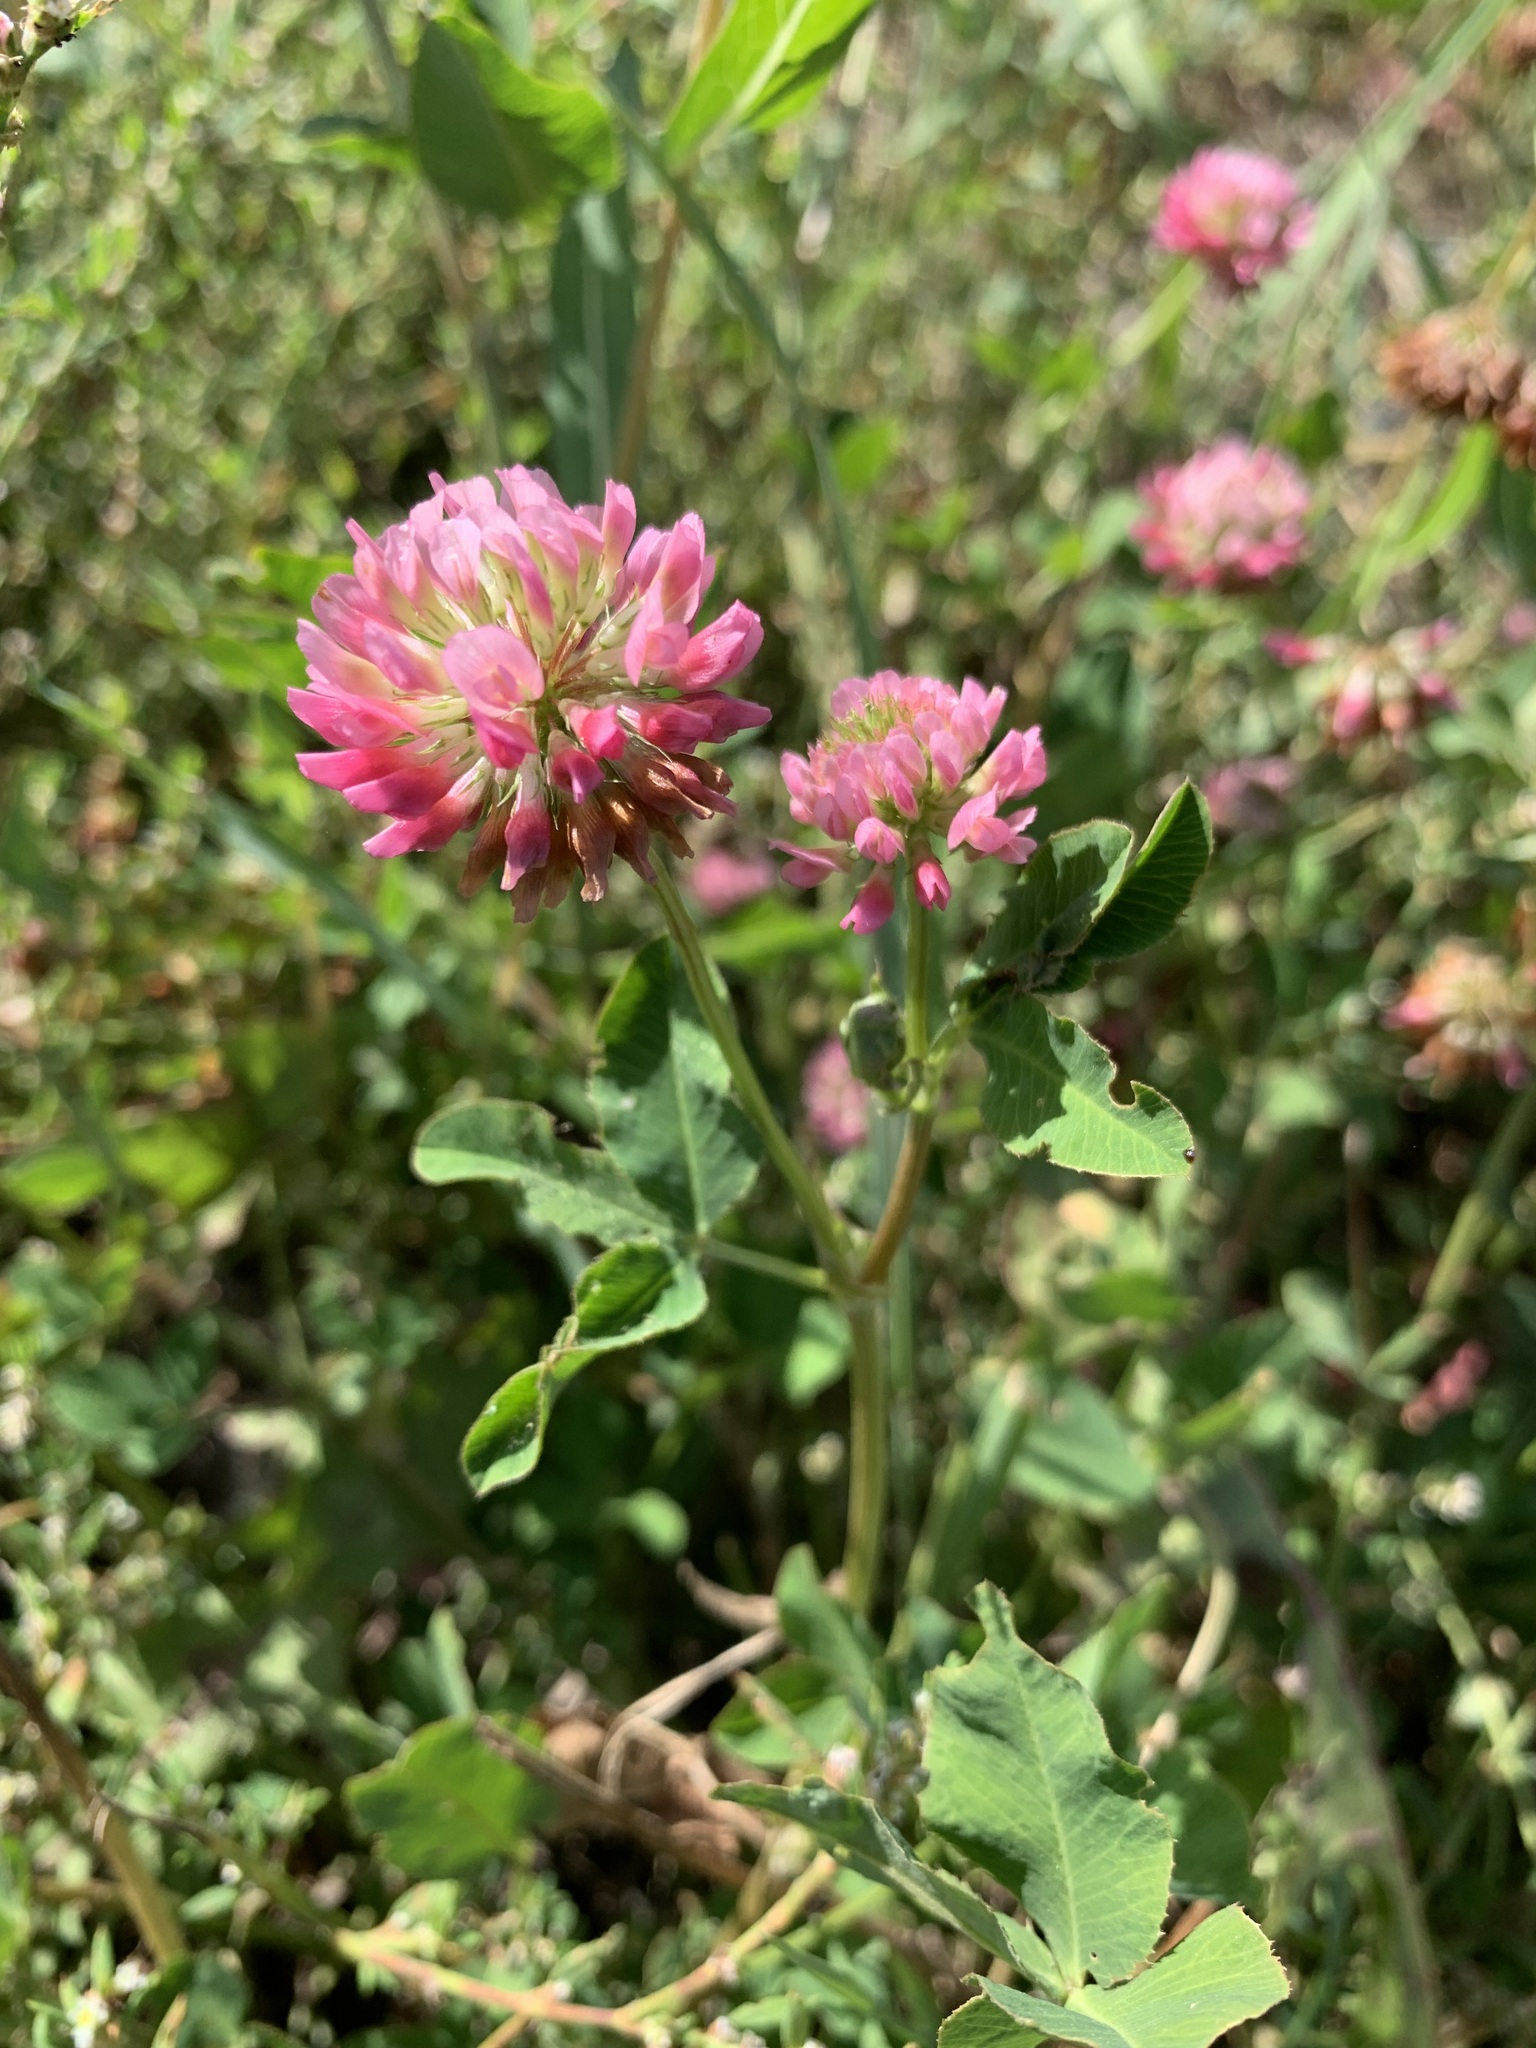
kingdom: Plantae
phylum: Tracheophyta
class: Magnoliopsida
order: Fabales
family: Fabaceae
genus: Trifolium
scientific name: Trifolium hybridum
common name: Alsike clover
